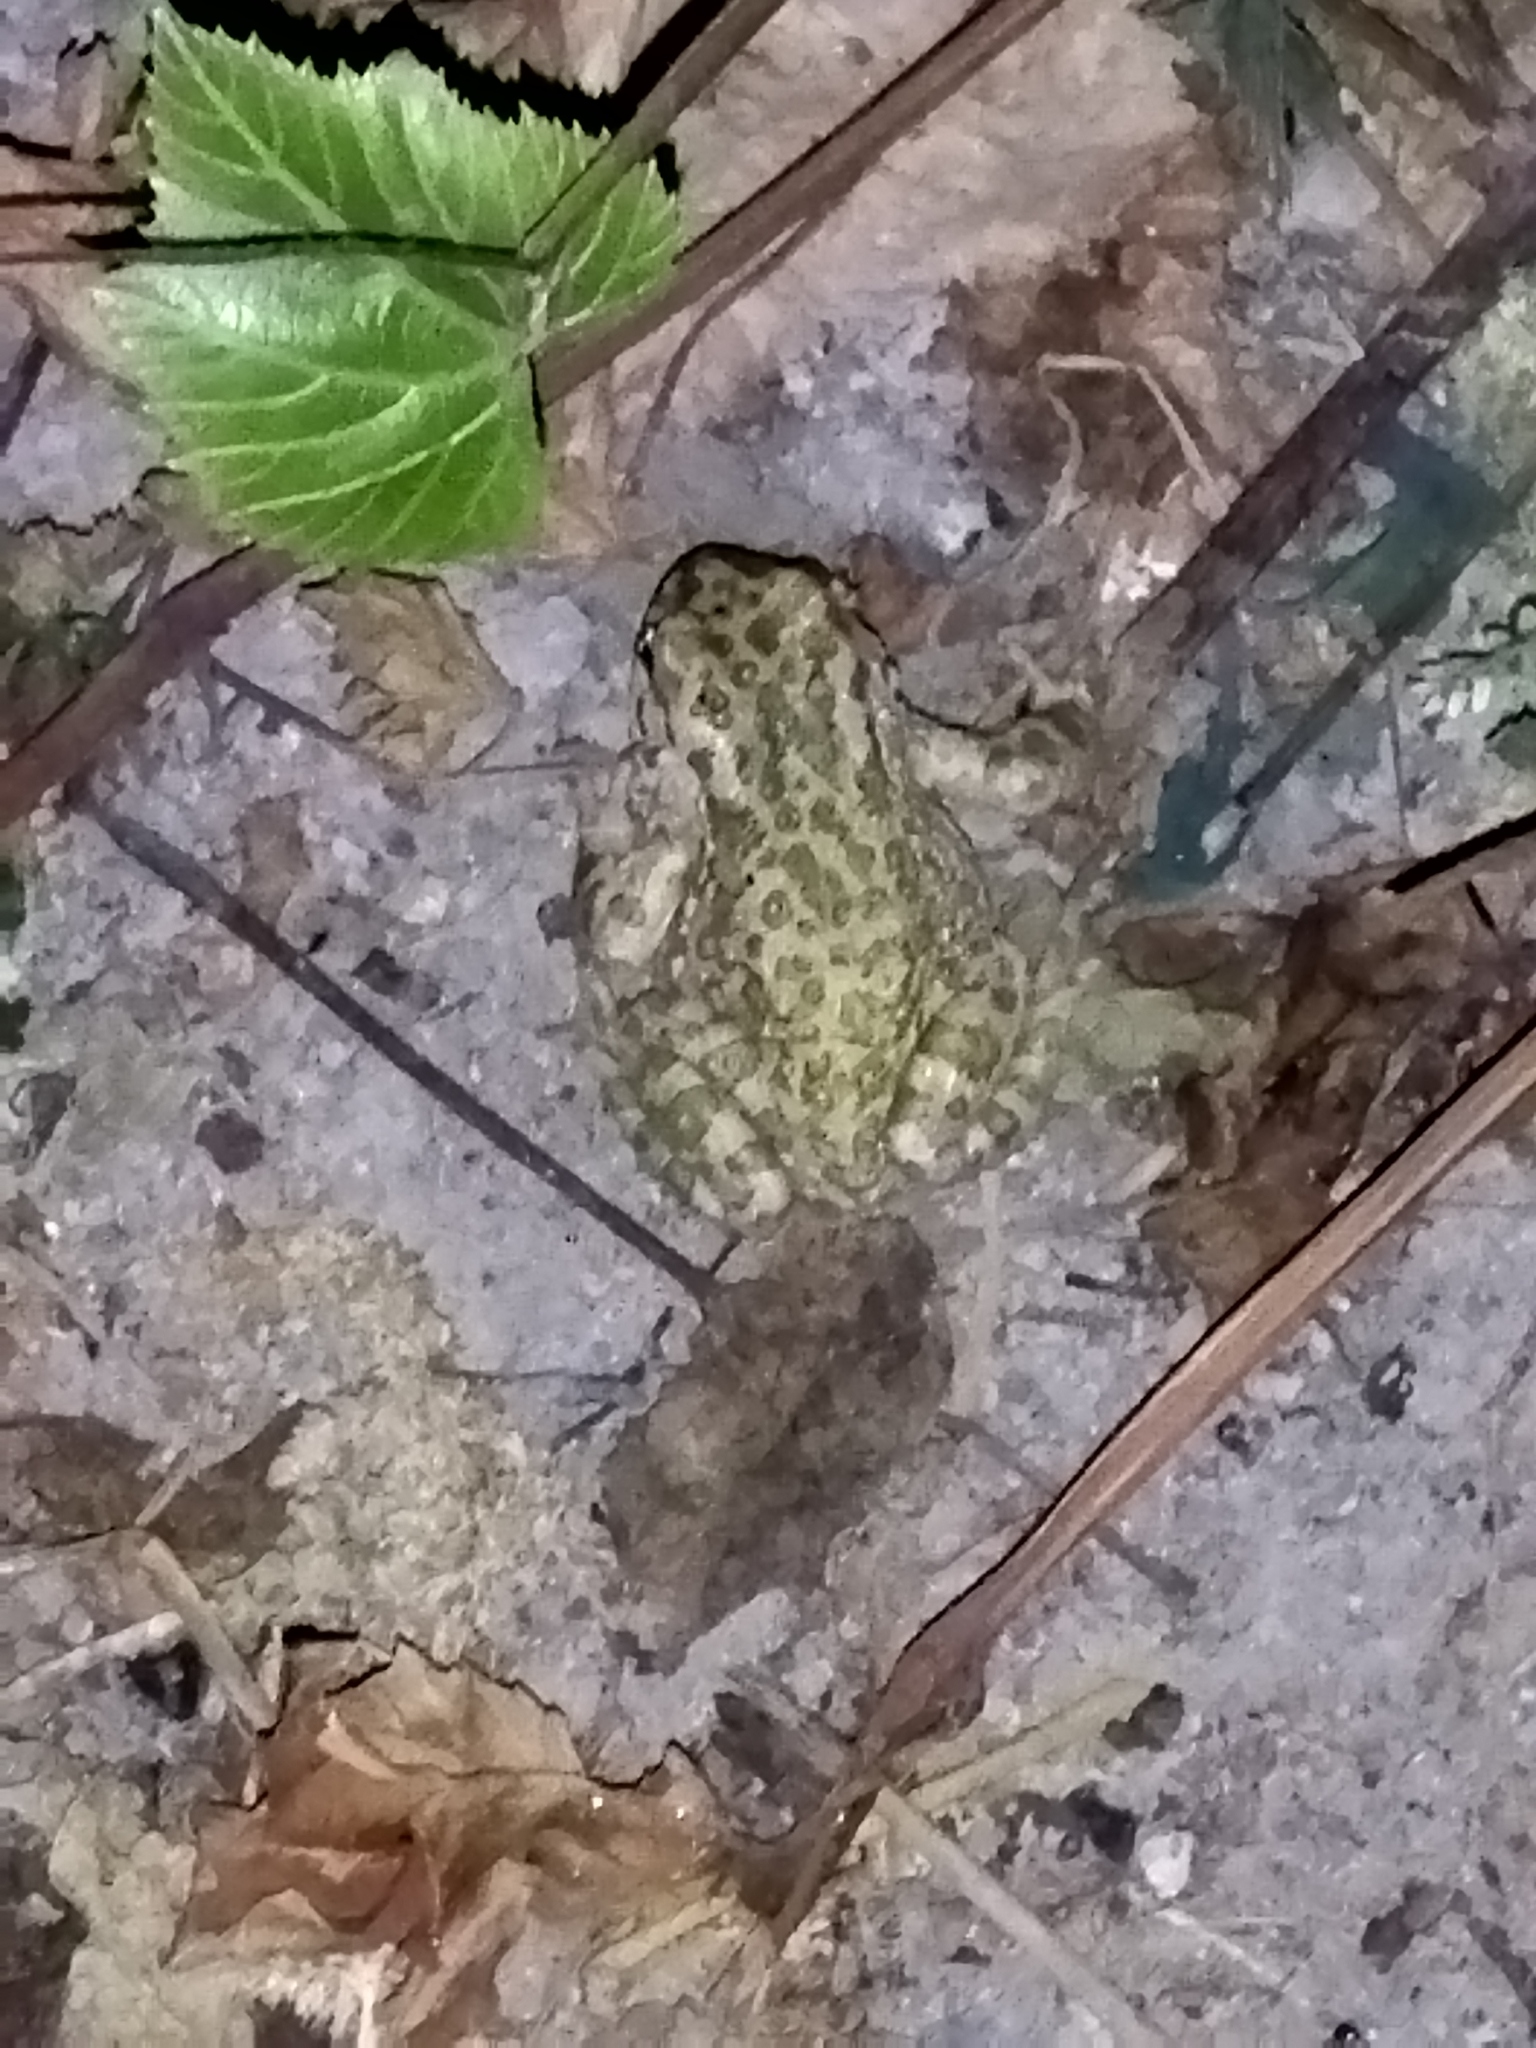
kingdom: Animalia
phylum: Chordata
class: Amphibia
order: Anura
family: Bufonidae
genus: Bufotes
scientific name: Bufotes viridis
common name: European green toad
